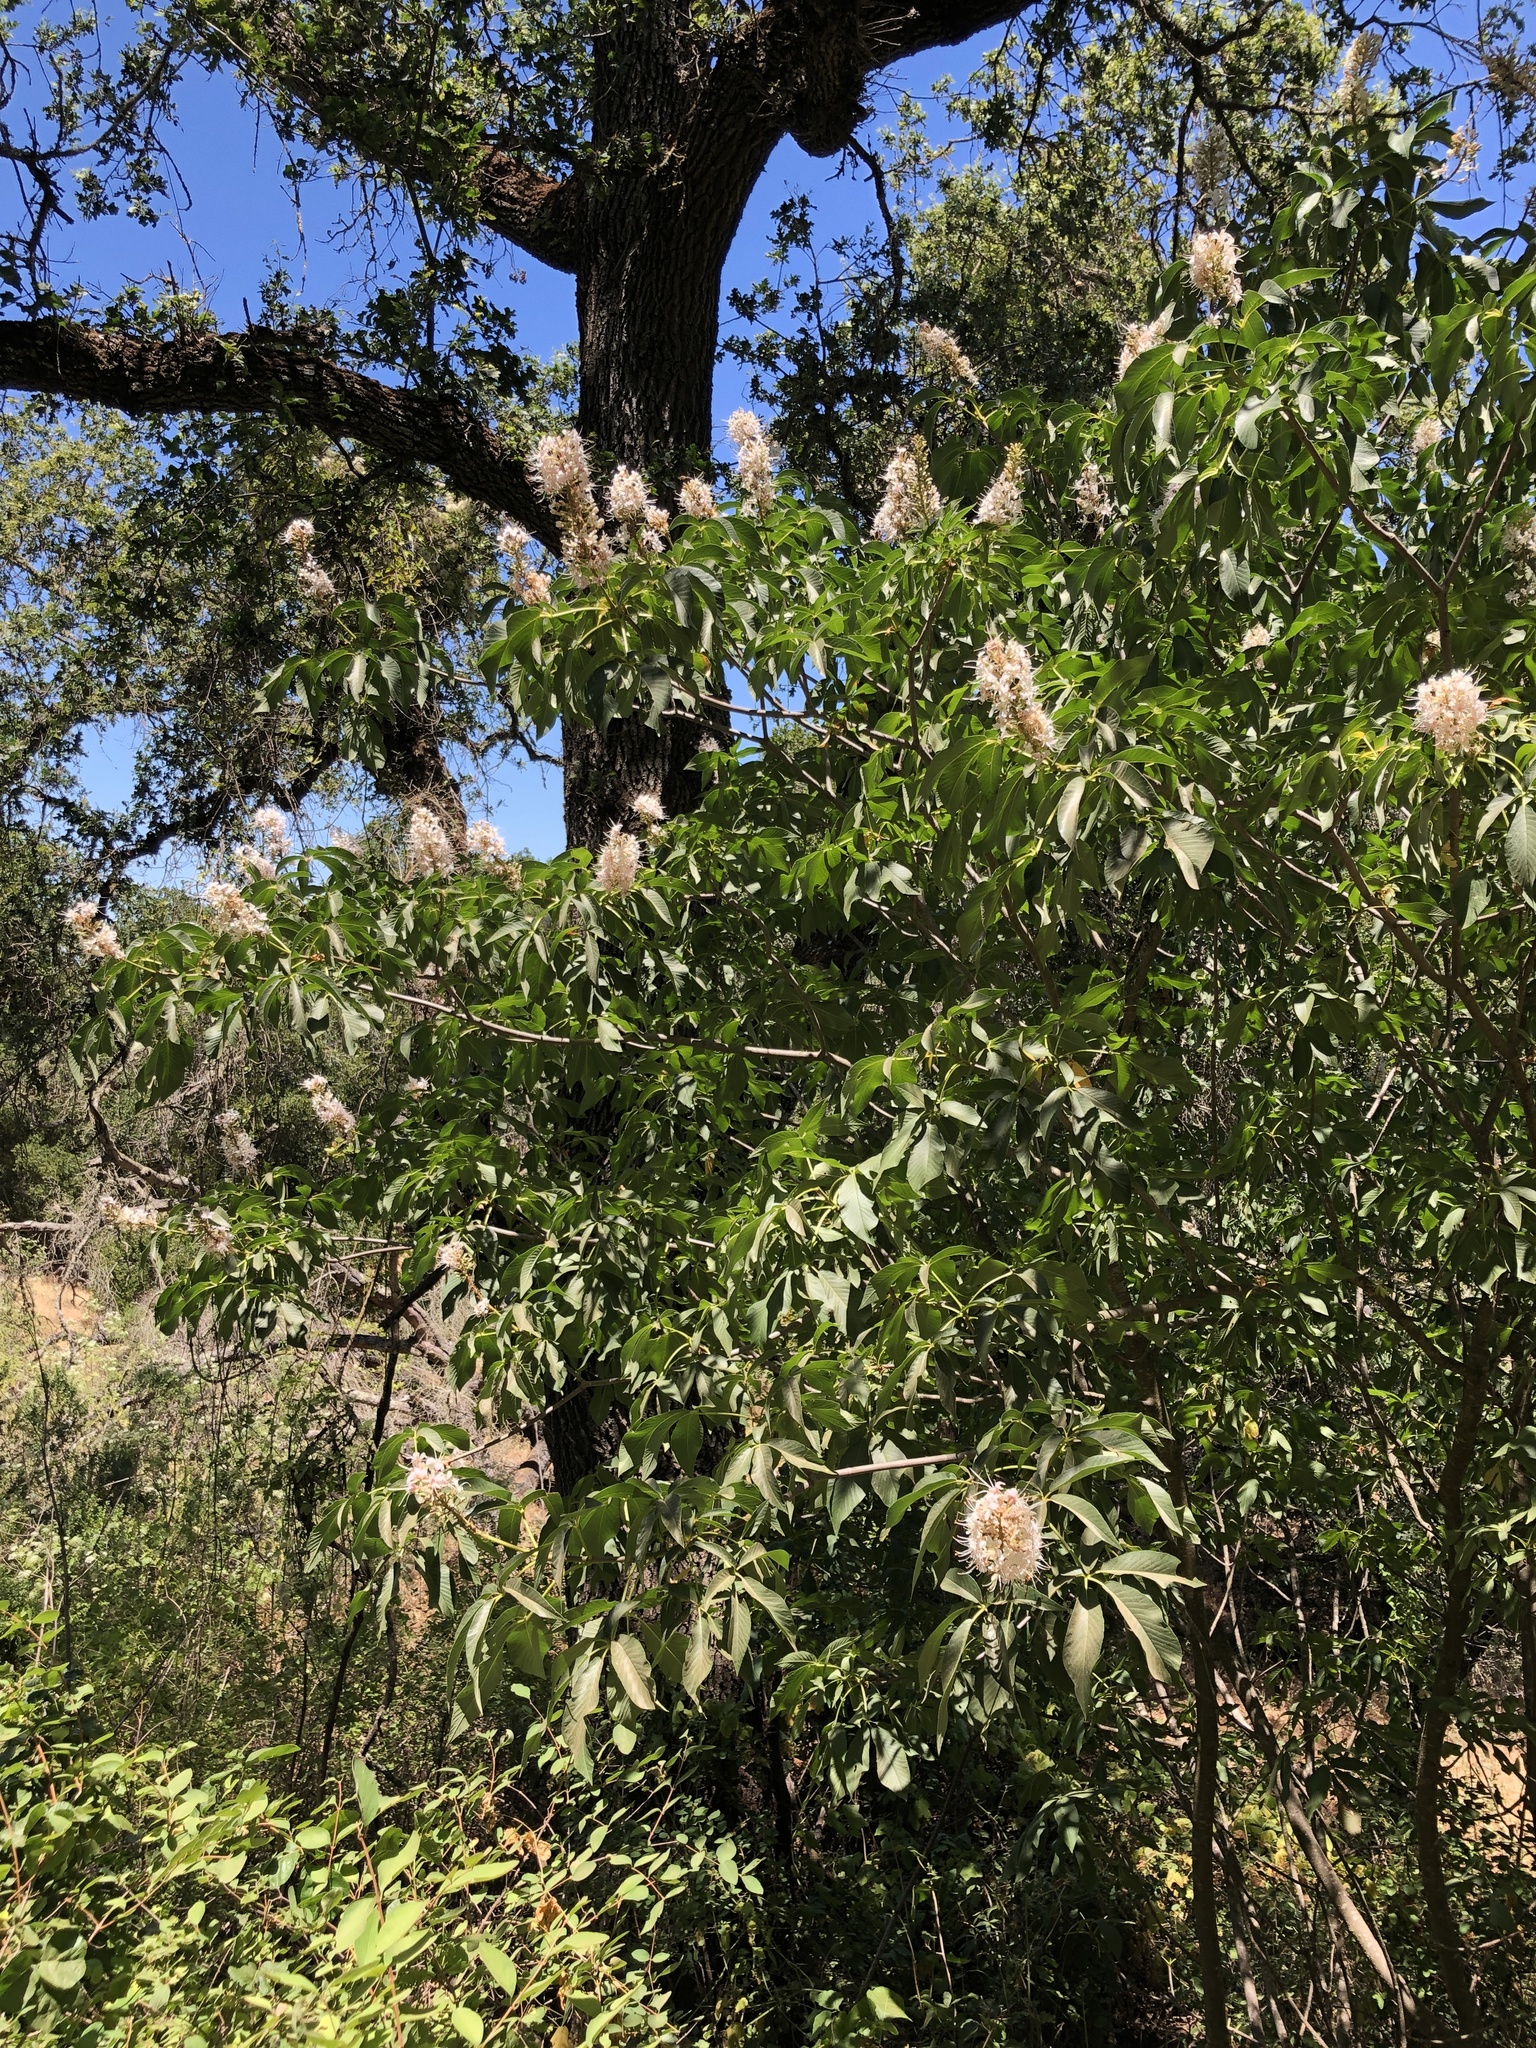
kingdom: Plantae
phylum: Tracheophyta
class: Magnoliopsida
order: Sapindales
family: Sapindaceae
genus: Aesculus
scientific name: Aesculus californica
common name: California buckeye
